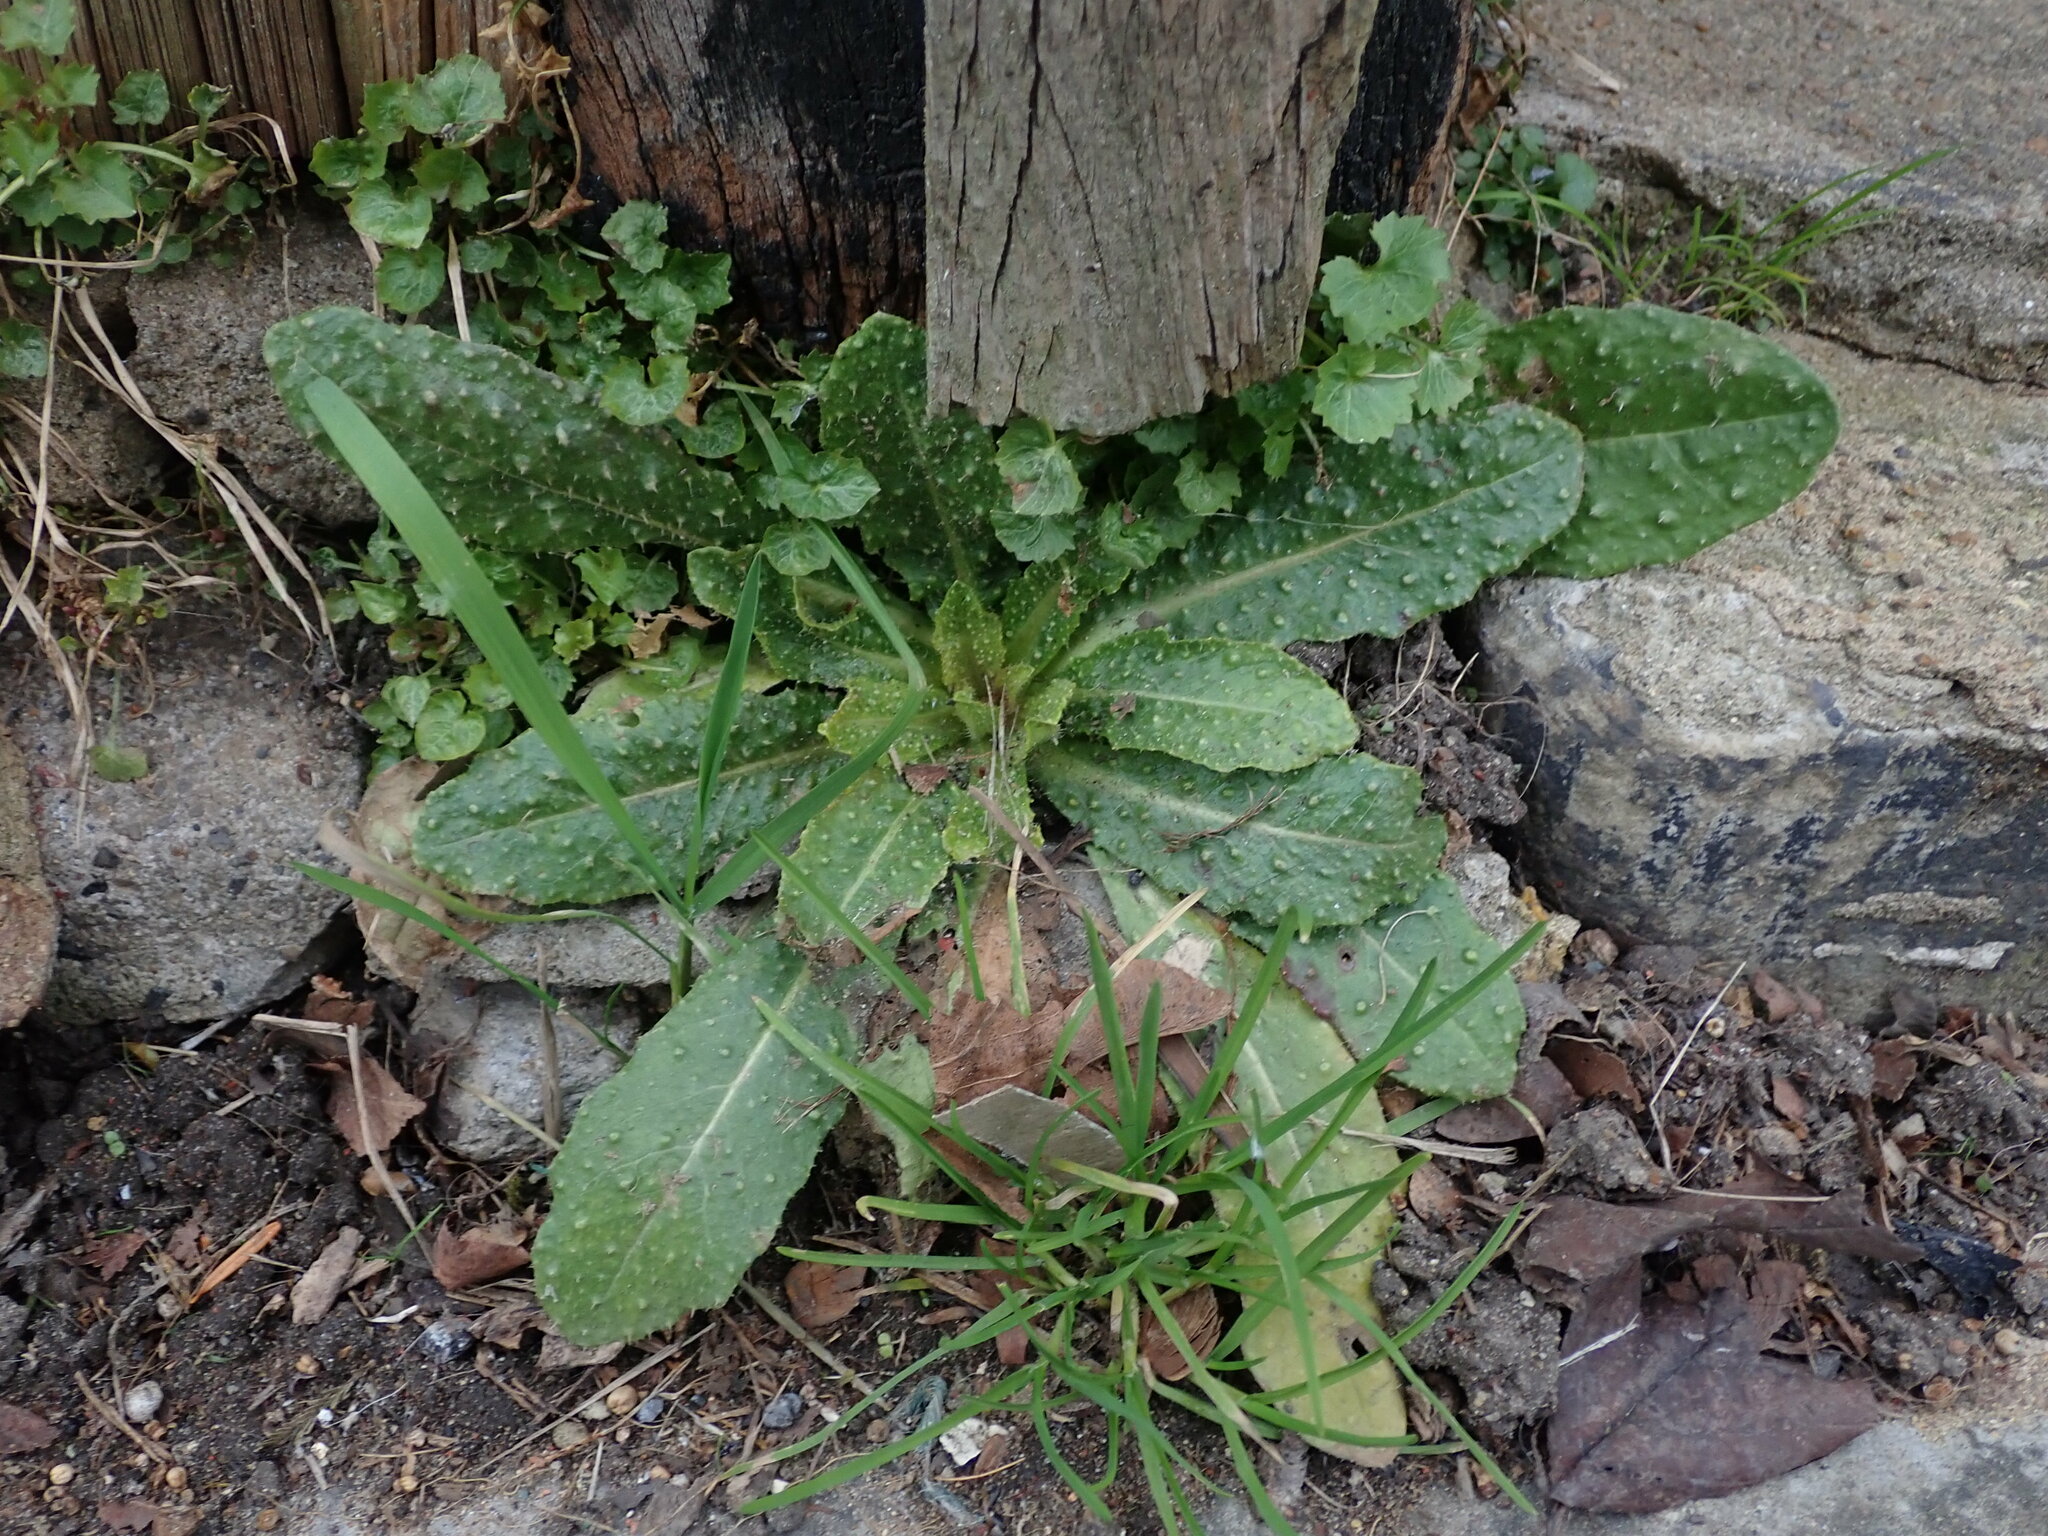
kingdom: Plantae
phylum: Tracheophyta
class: Magnoliopsida
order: Asterales
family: Asteraceae
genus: Helminthotheca
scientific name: Helminthotheca echioides
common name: Ox-tongue
